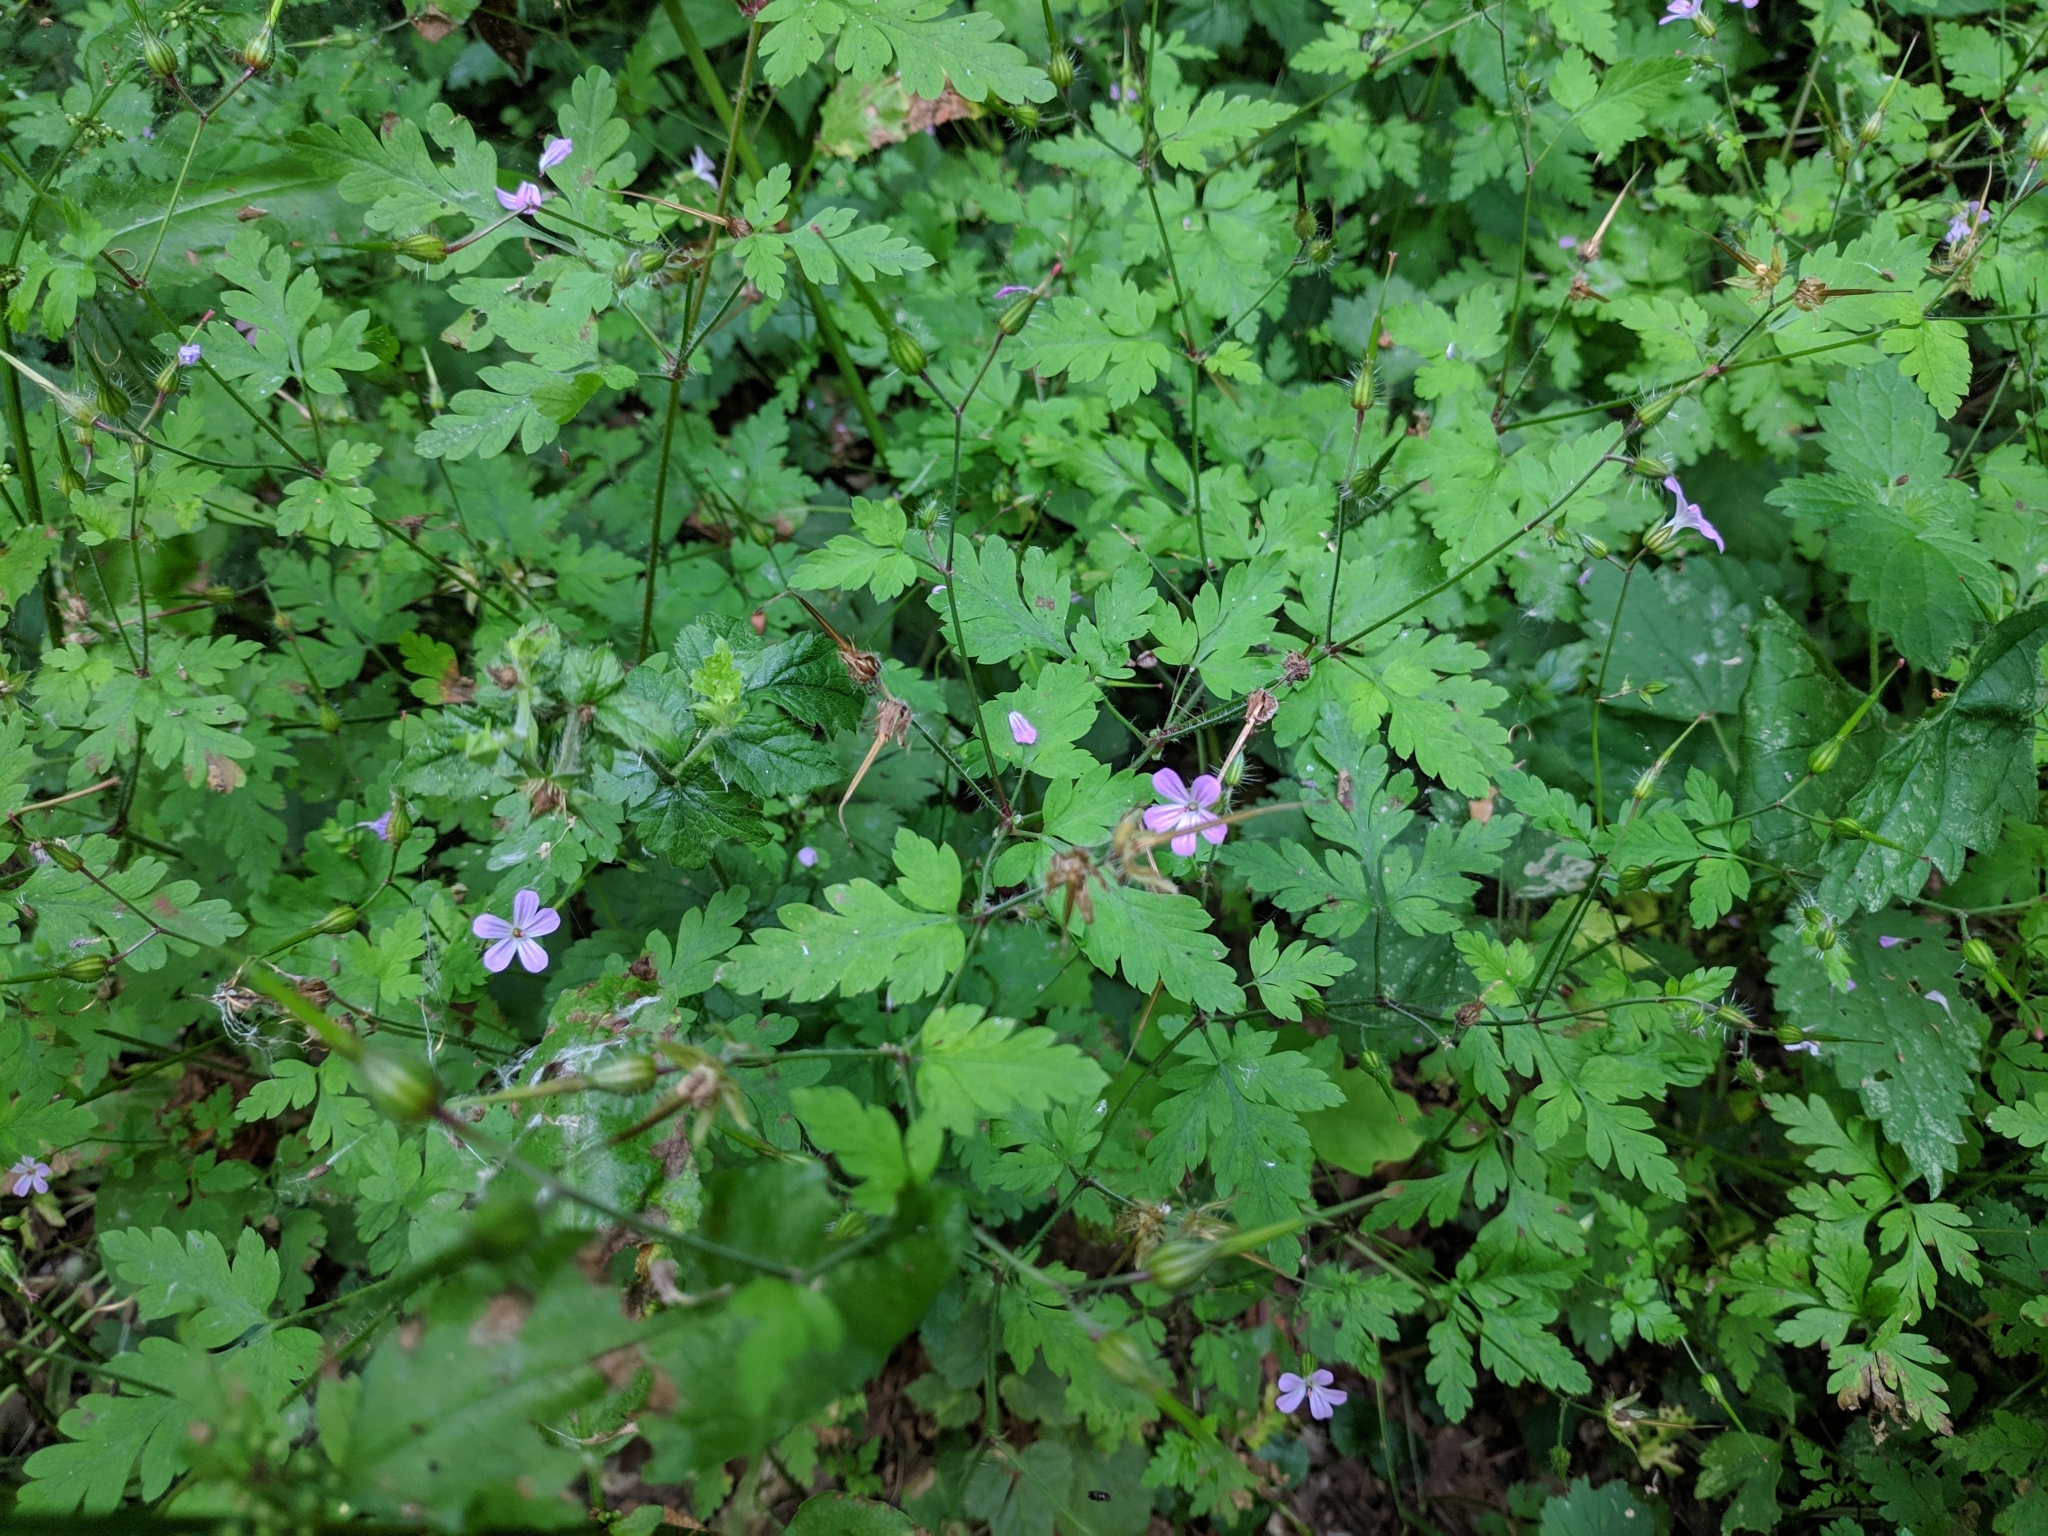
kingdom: Plantae
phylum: Tracheophyta
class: Magnoliopsida
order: Geraniales
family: Geraniaceae
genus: Geranium
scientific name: Geranium robertianum
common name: Herb-robert
